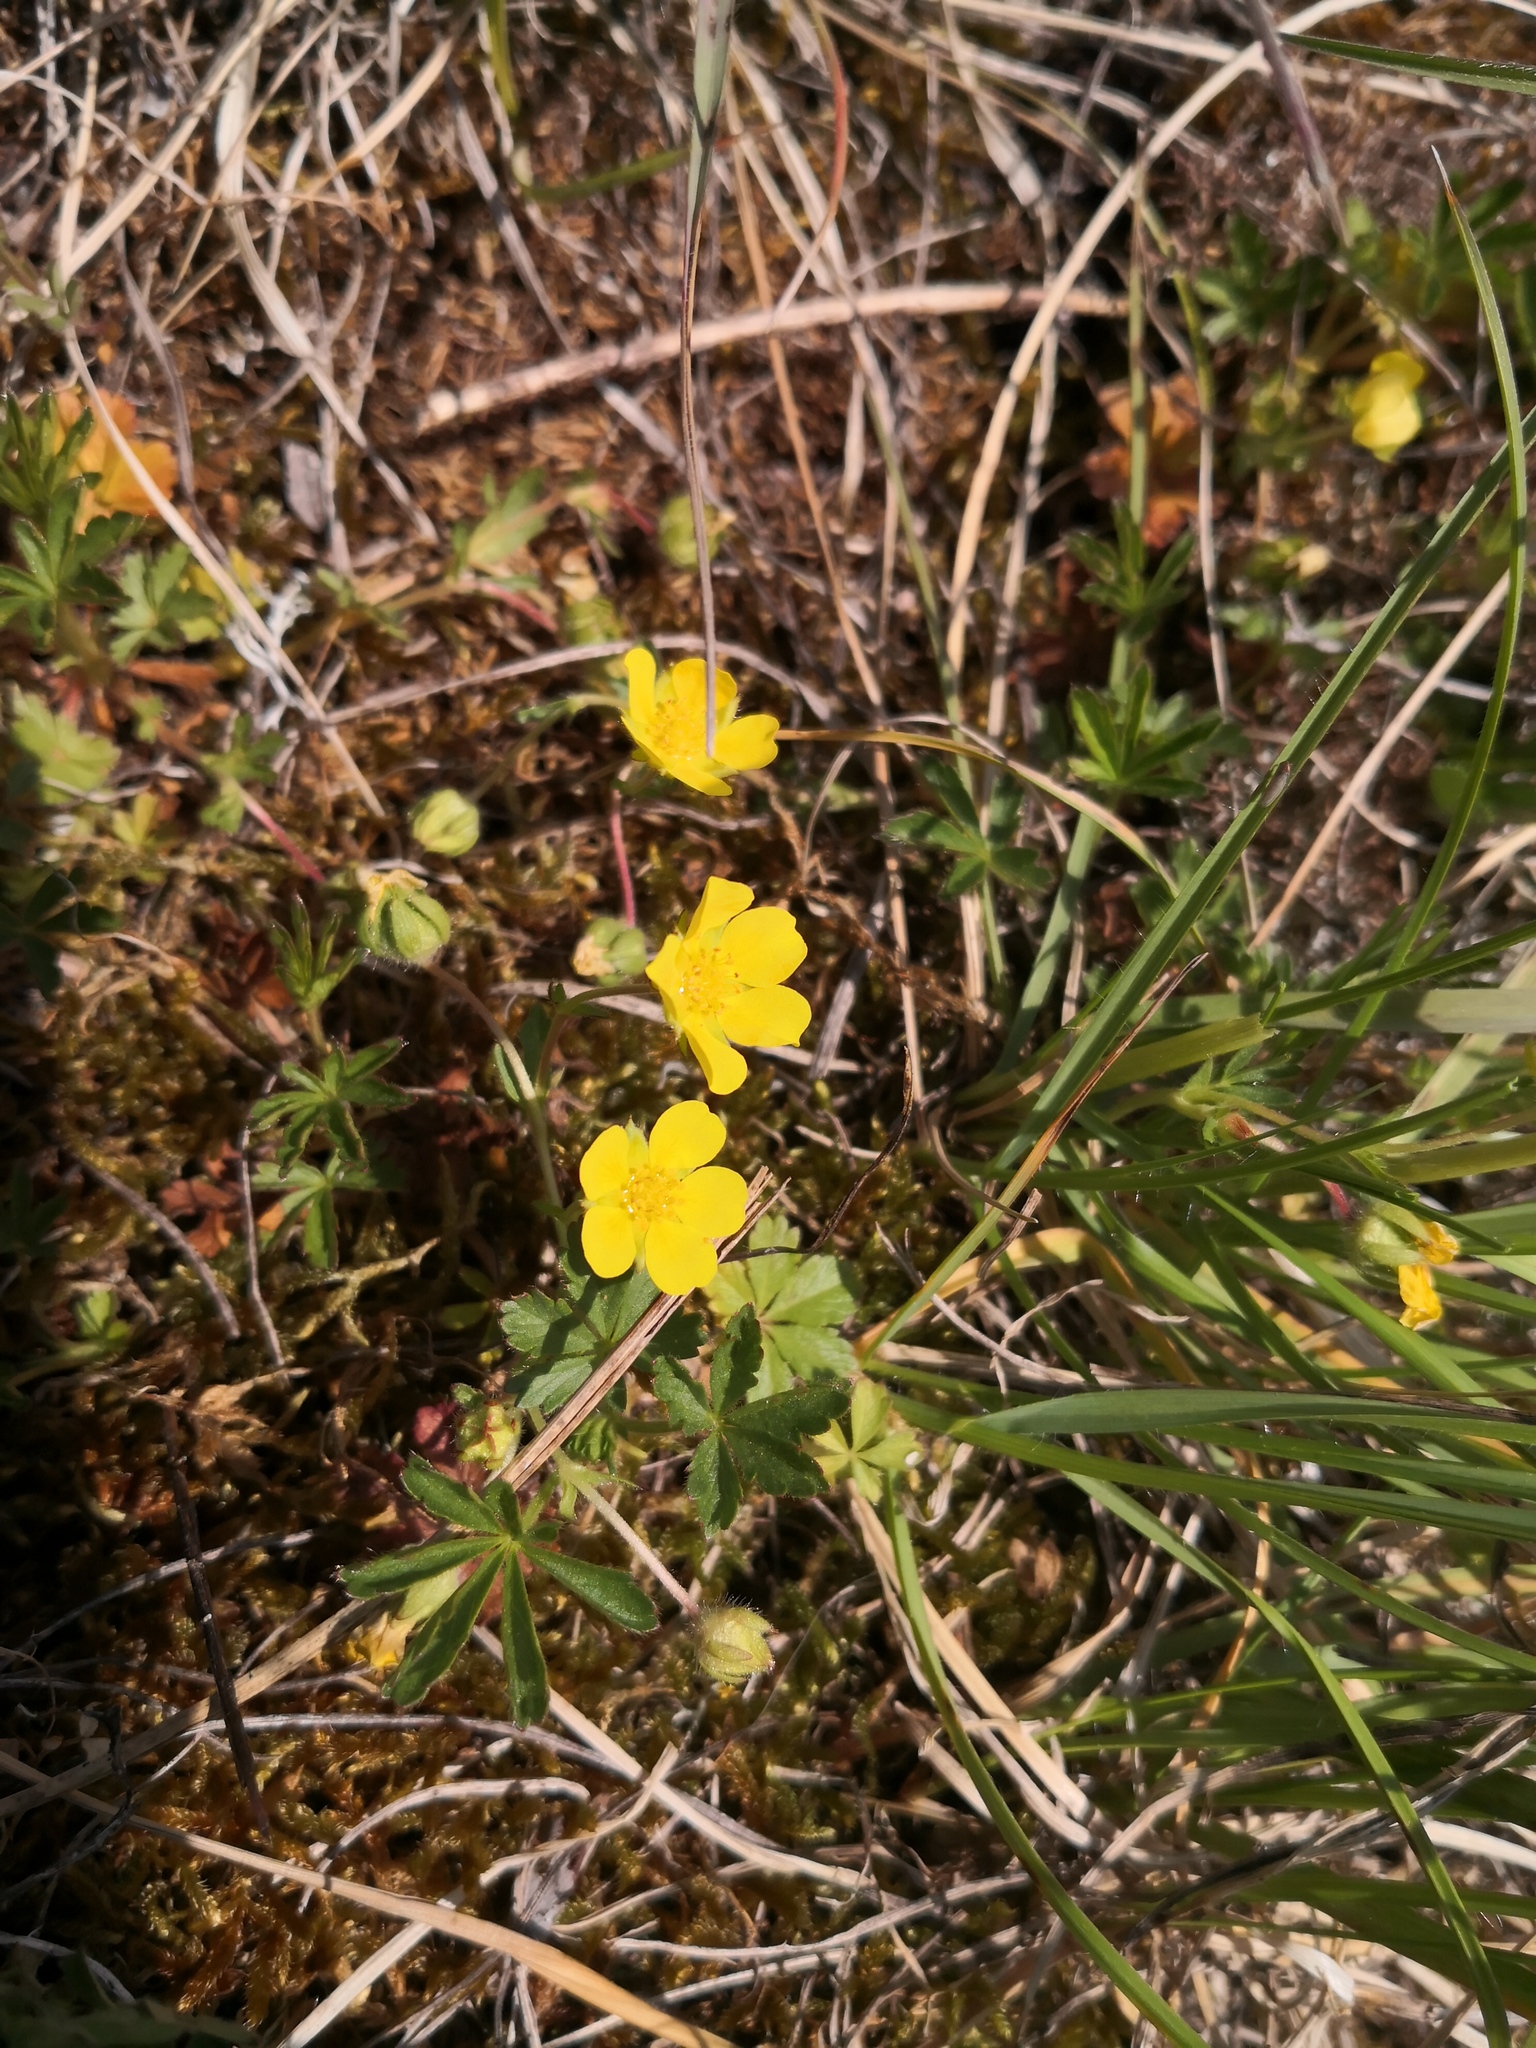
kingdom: Plantae
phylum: Tracheophyta
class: Magnoliopsida
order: Rosales
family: Rosaceae
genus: Potentilla
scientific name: Potentilla verna
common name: Spring cinquefoil
